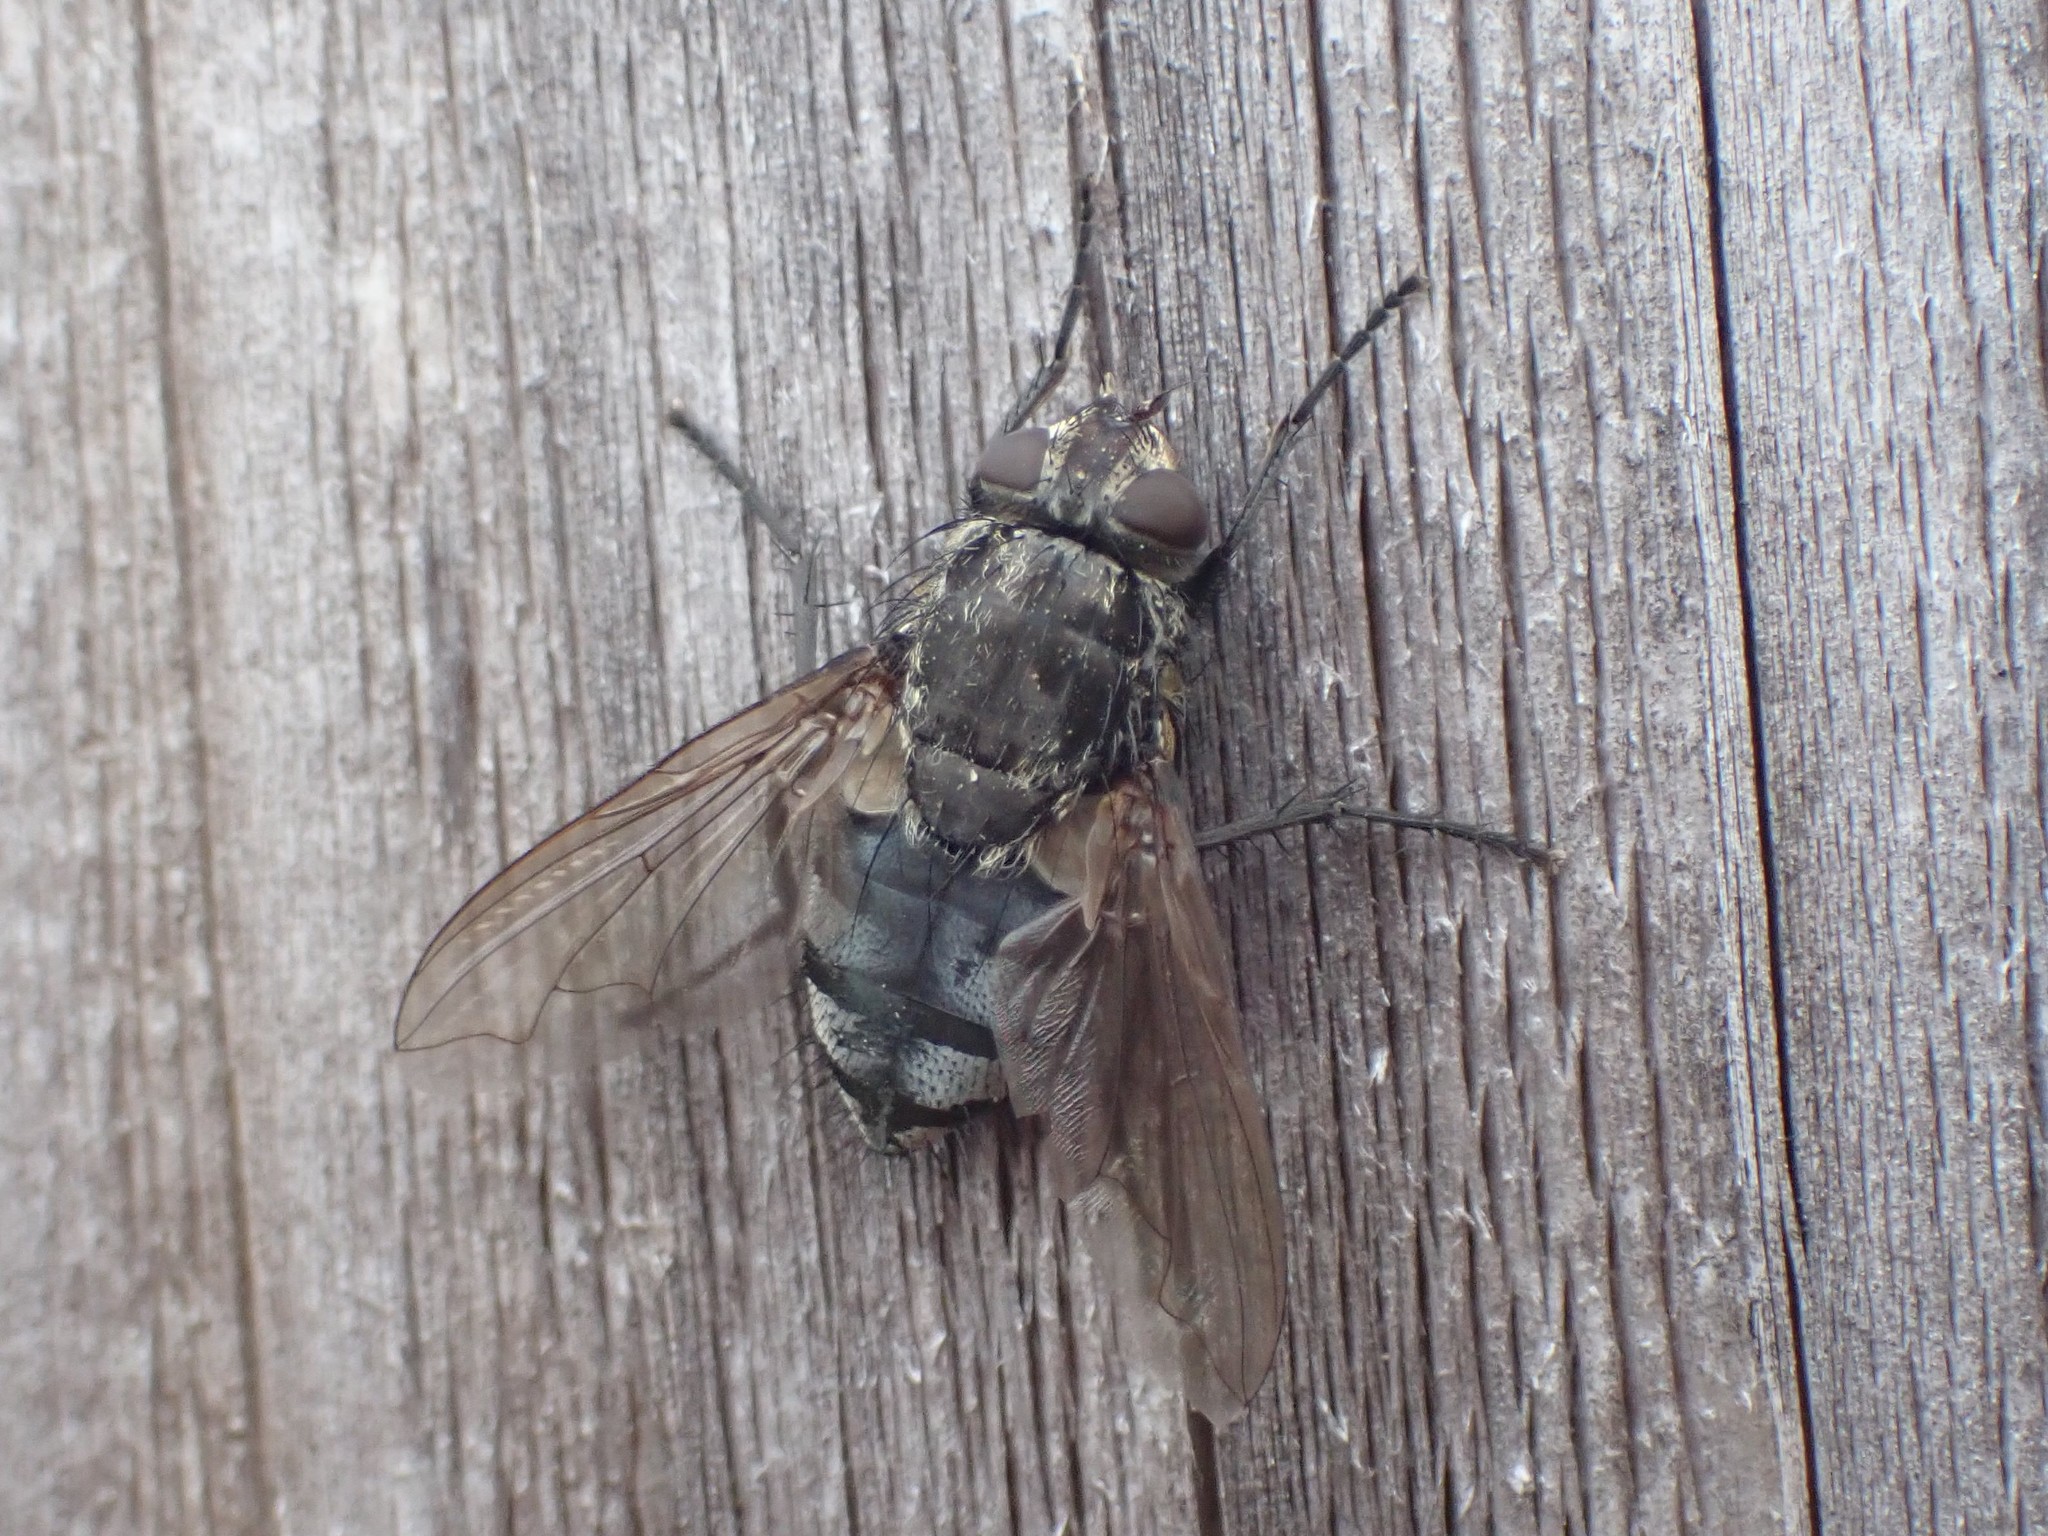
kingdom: Animalia
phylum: Arthropoda
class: Insecta
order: Diptera
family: Polleniidae
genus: Pollenia
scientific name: Pollenia vagabunda
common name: Vagabund cluster fly
